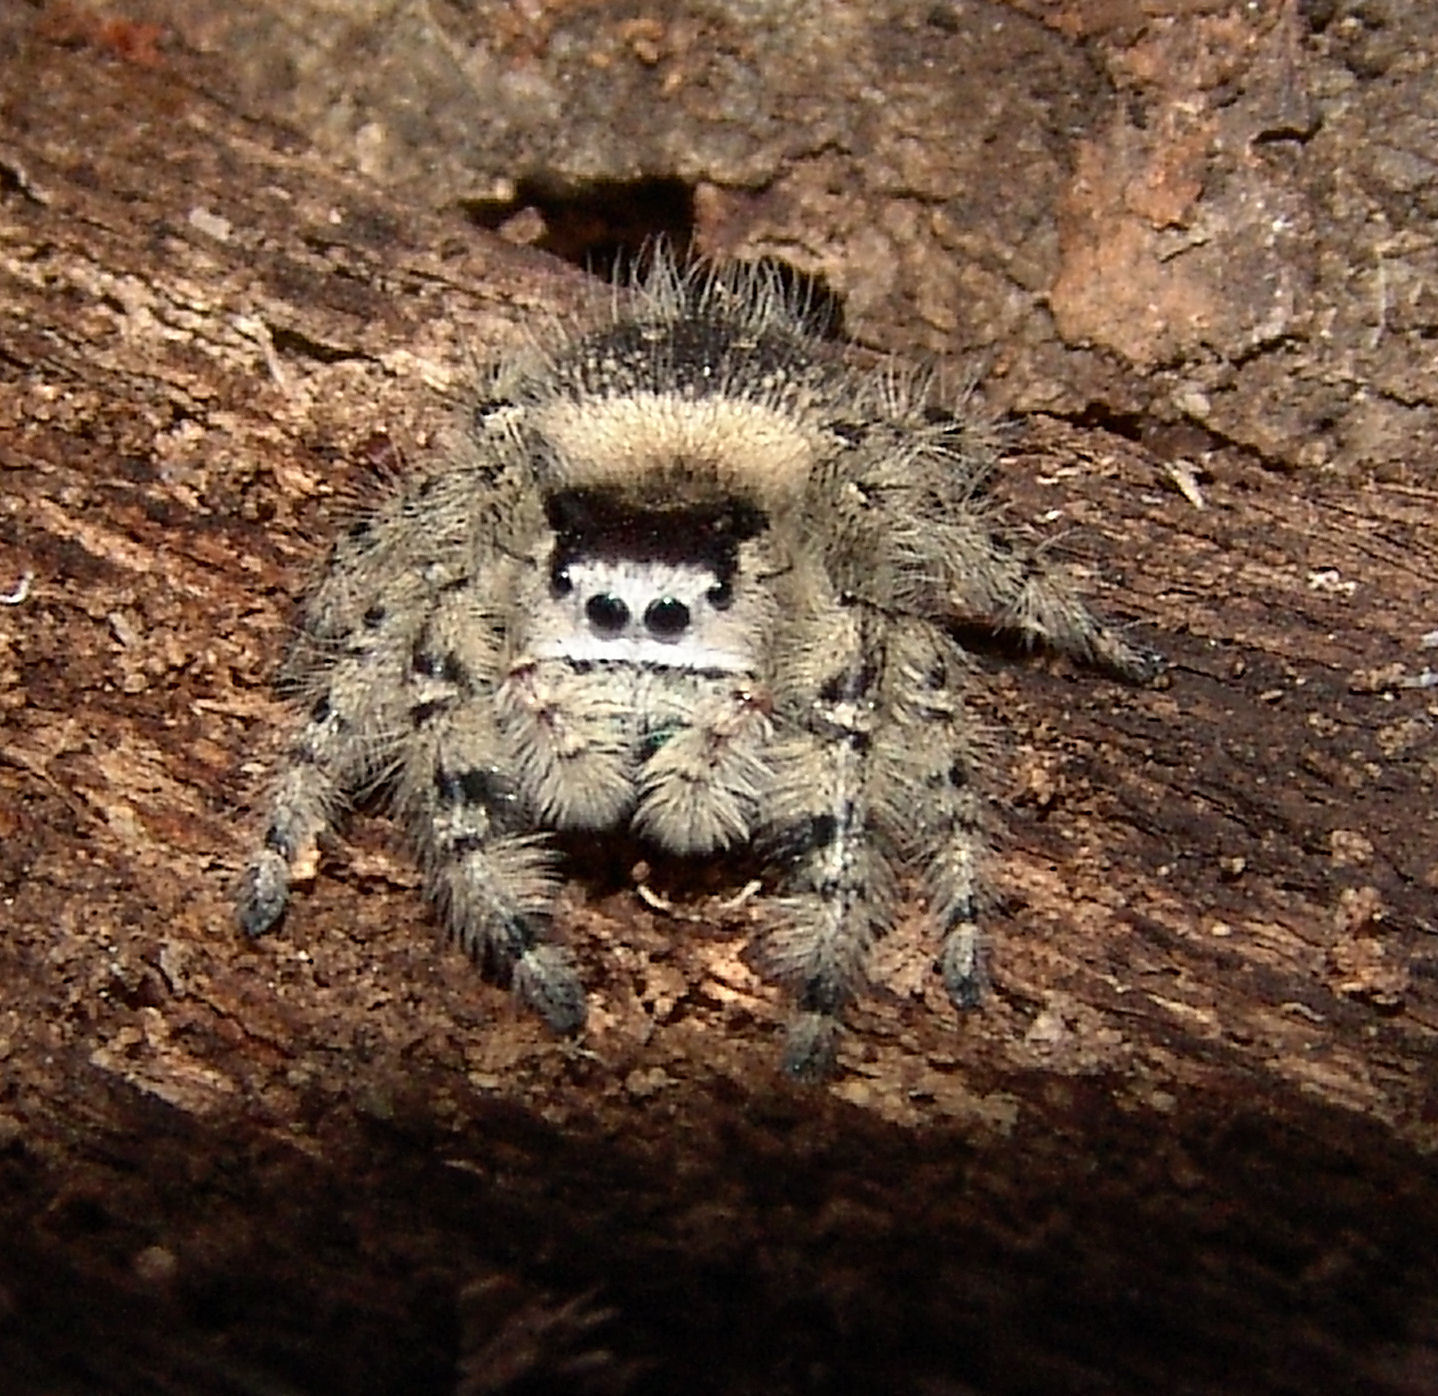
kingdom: Animalia
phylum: Arthropoda
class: Arachnida
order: Araneae
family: Salticidae
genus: Phidippus
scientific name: Phidippus otiosus
